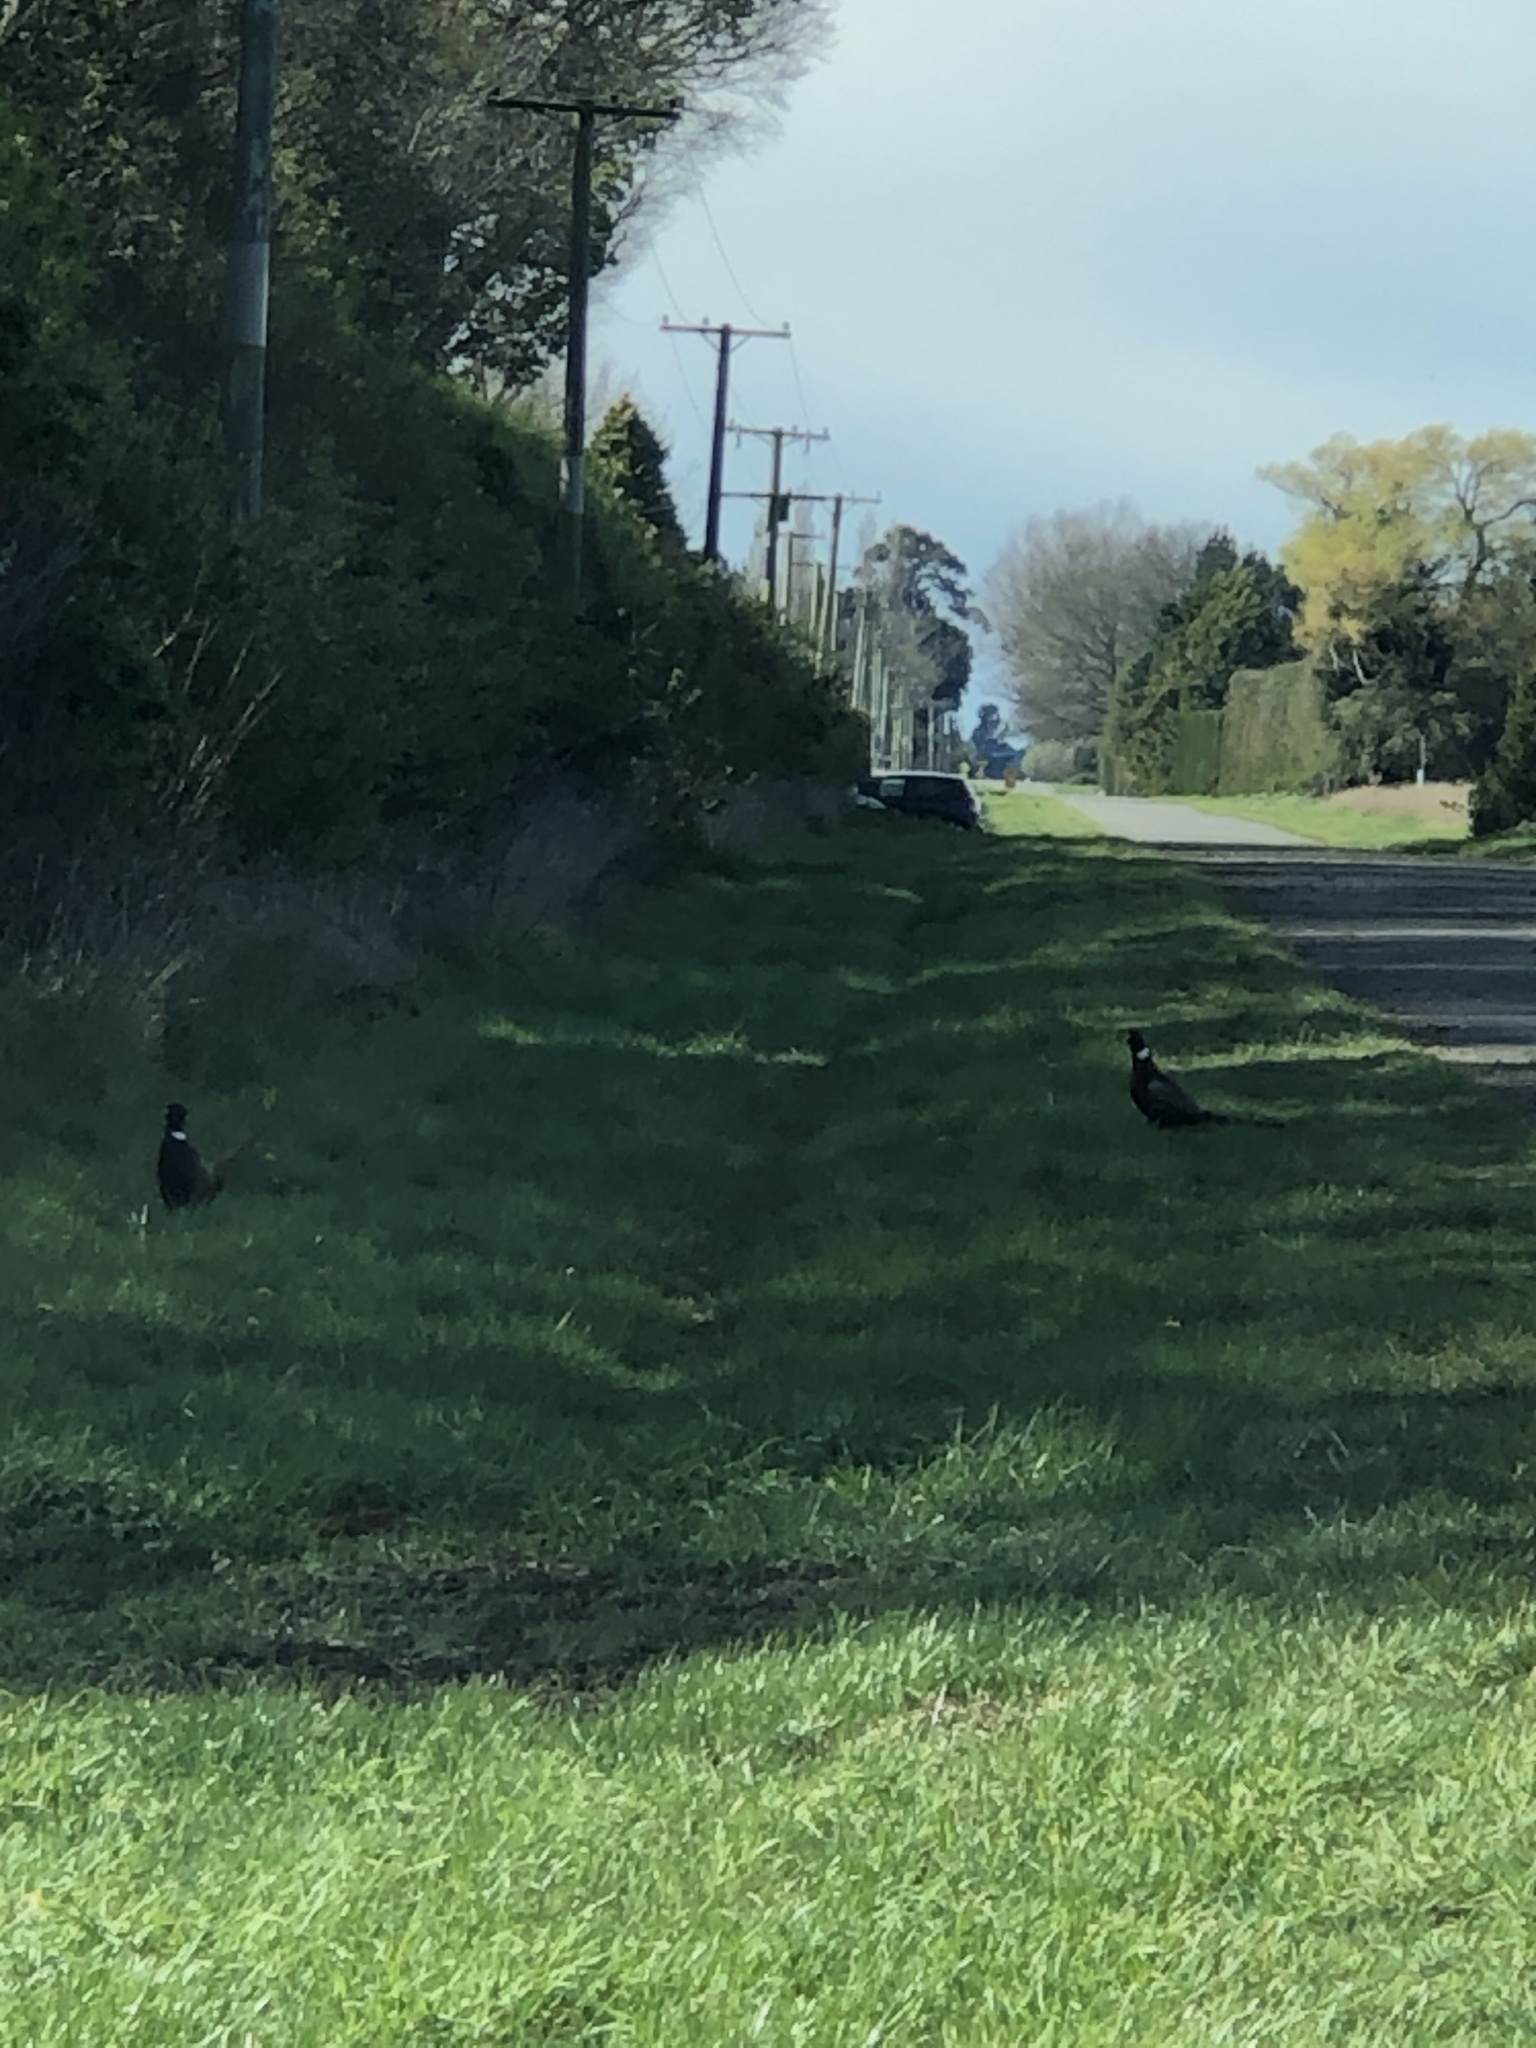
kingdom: Animalia
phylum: Chordata
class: Aves
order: Galliformes
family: Phasianidae
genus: Phasianus
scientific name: Phasianus colchicus
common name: Common pheasant
